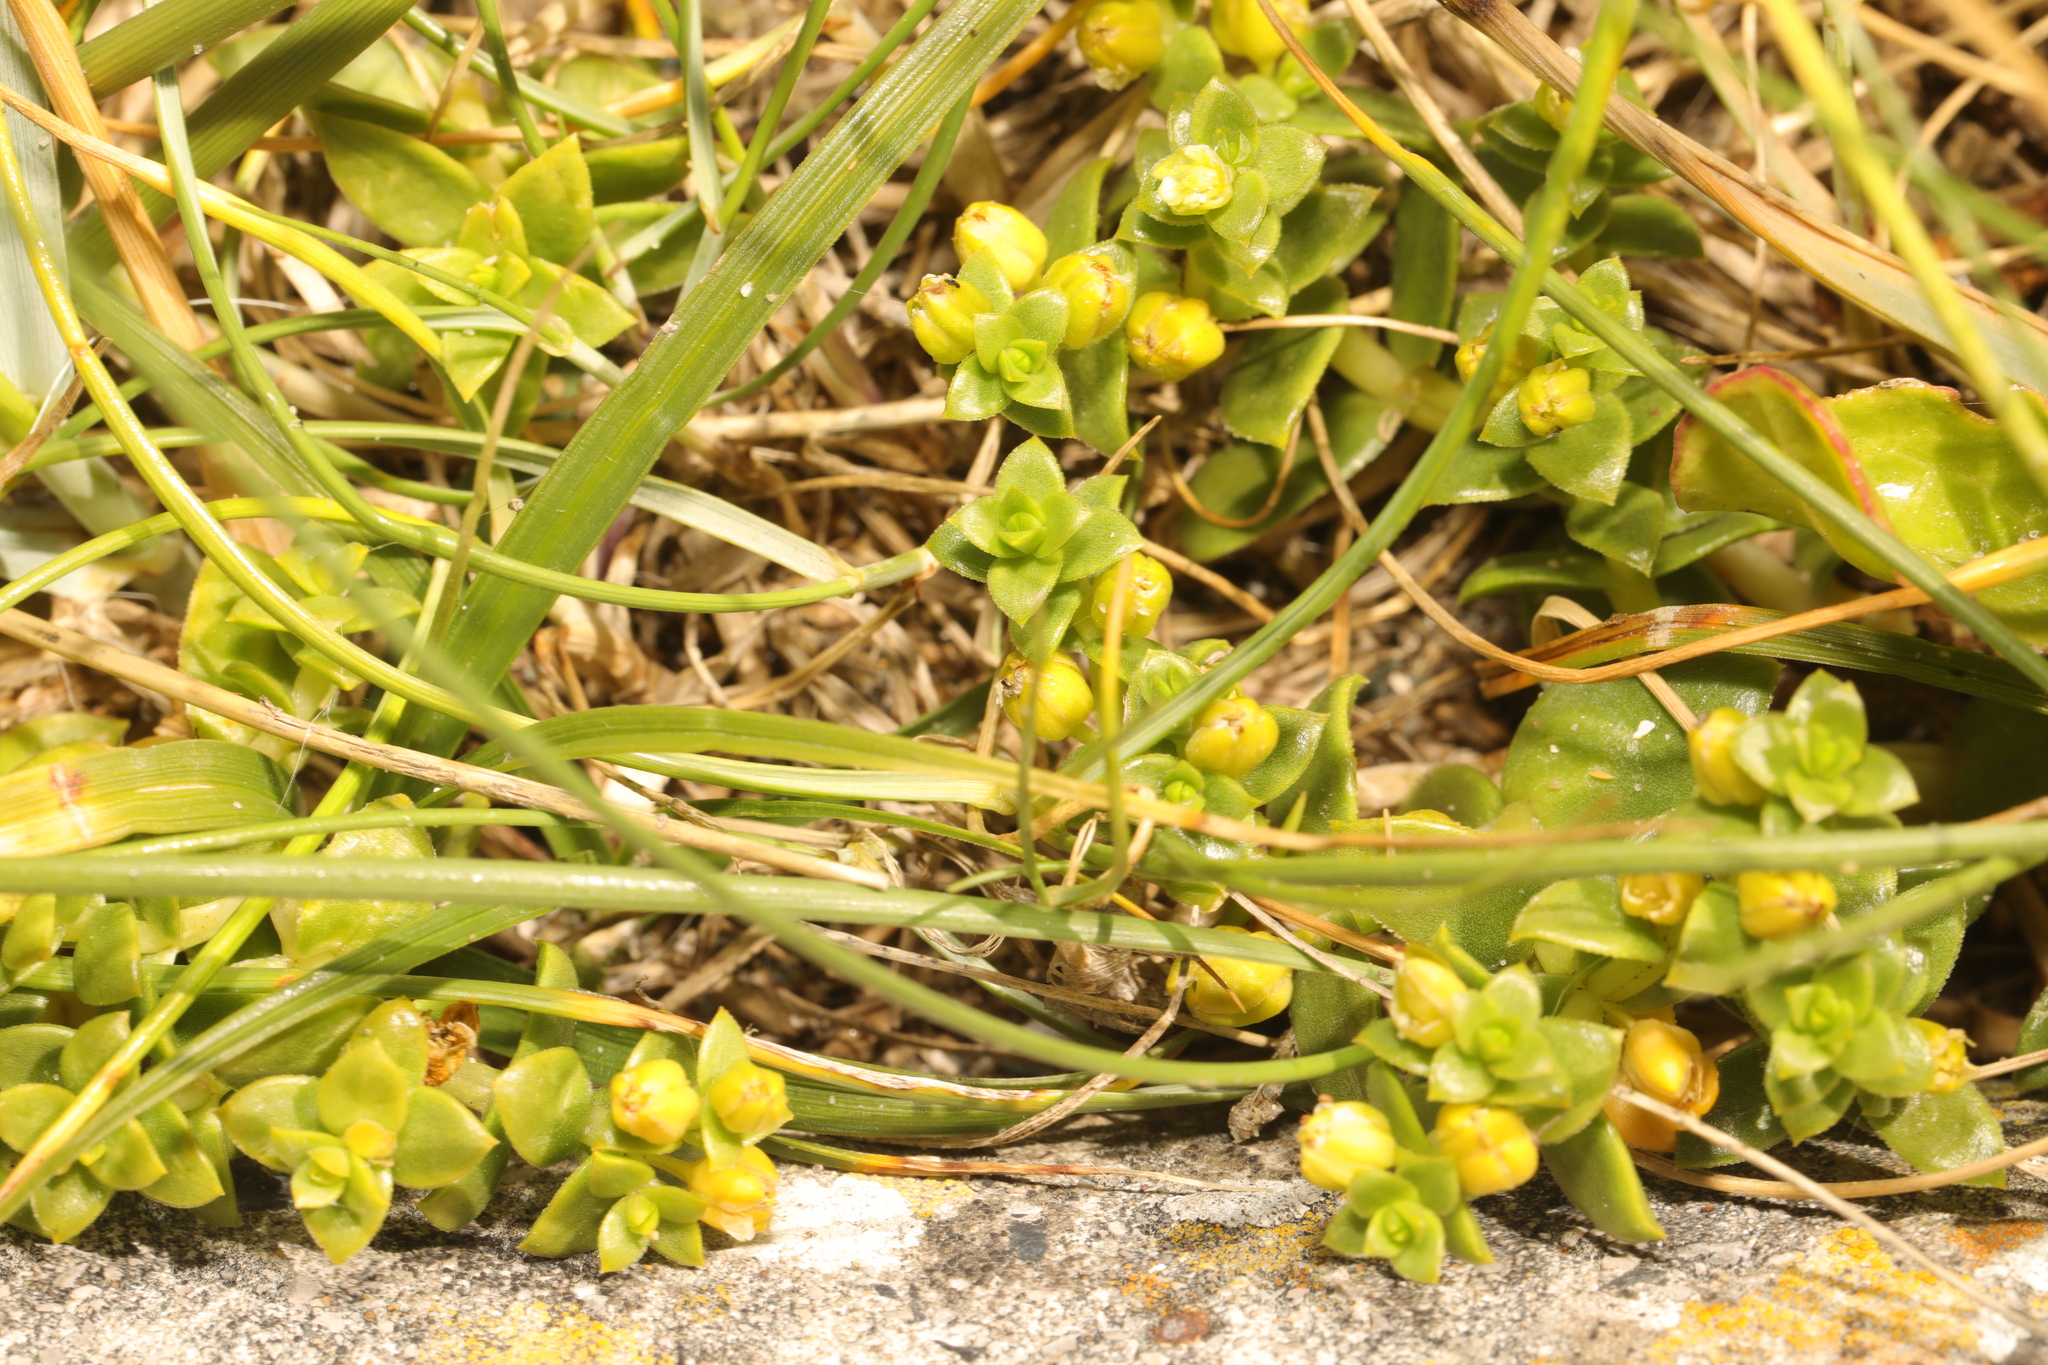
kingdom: Plantae
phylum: Tracheophyta
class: Magnoliopsida
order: Caryophyllales
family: Caryophyllaceae
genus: Honckenya
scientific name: Honckenya peploides
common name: Sea sandwort
